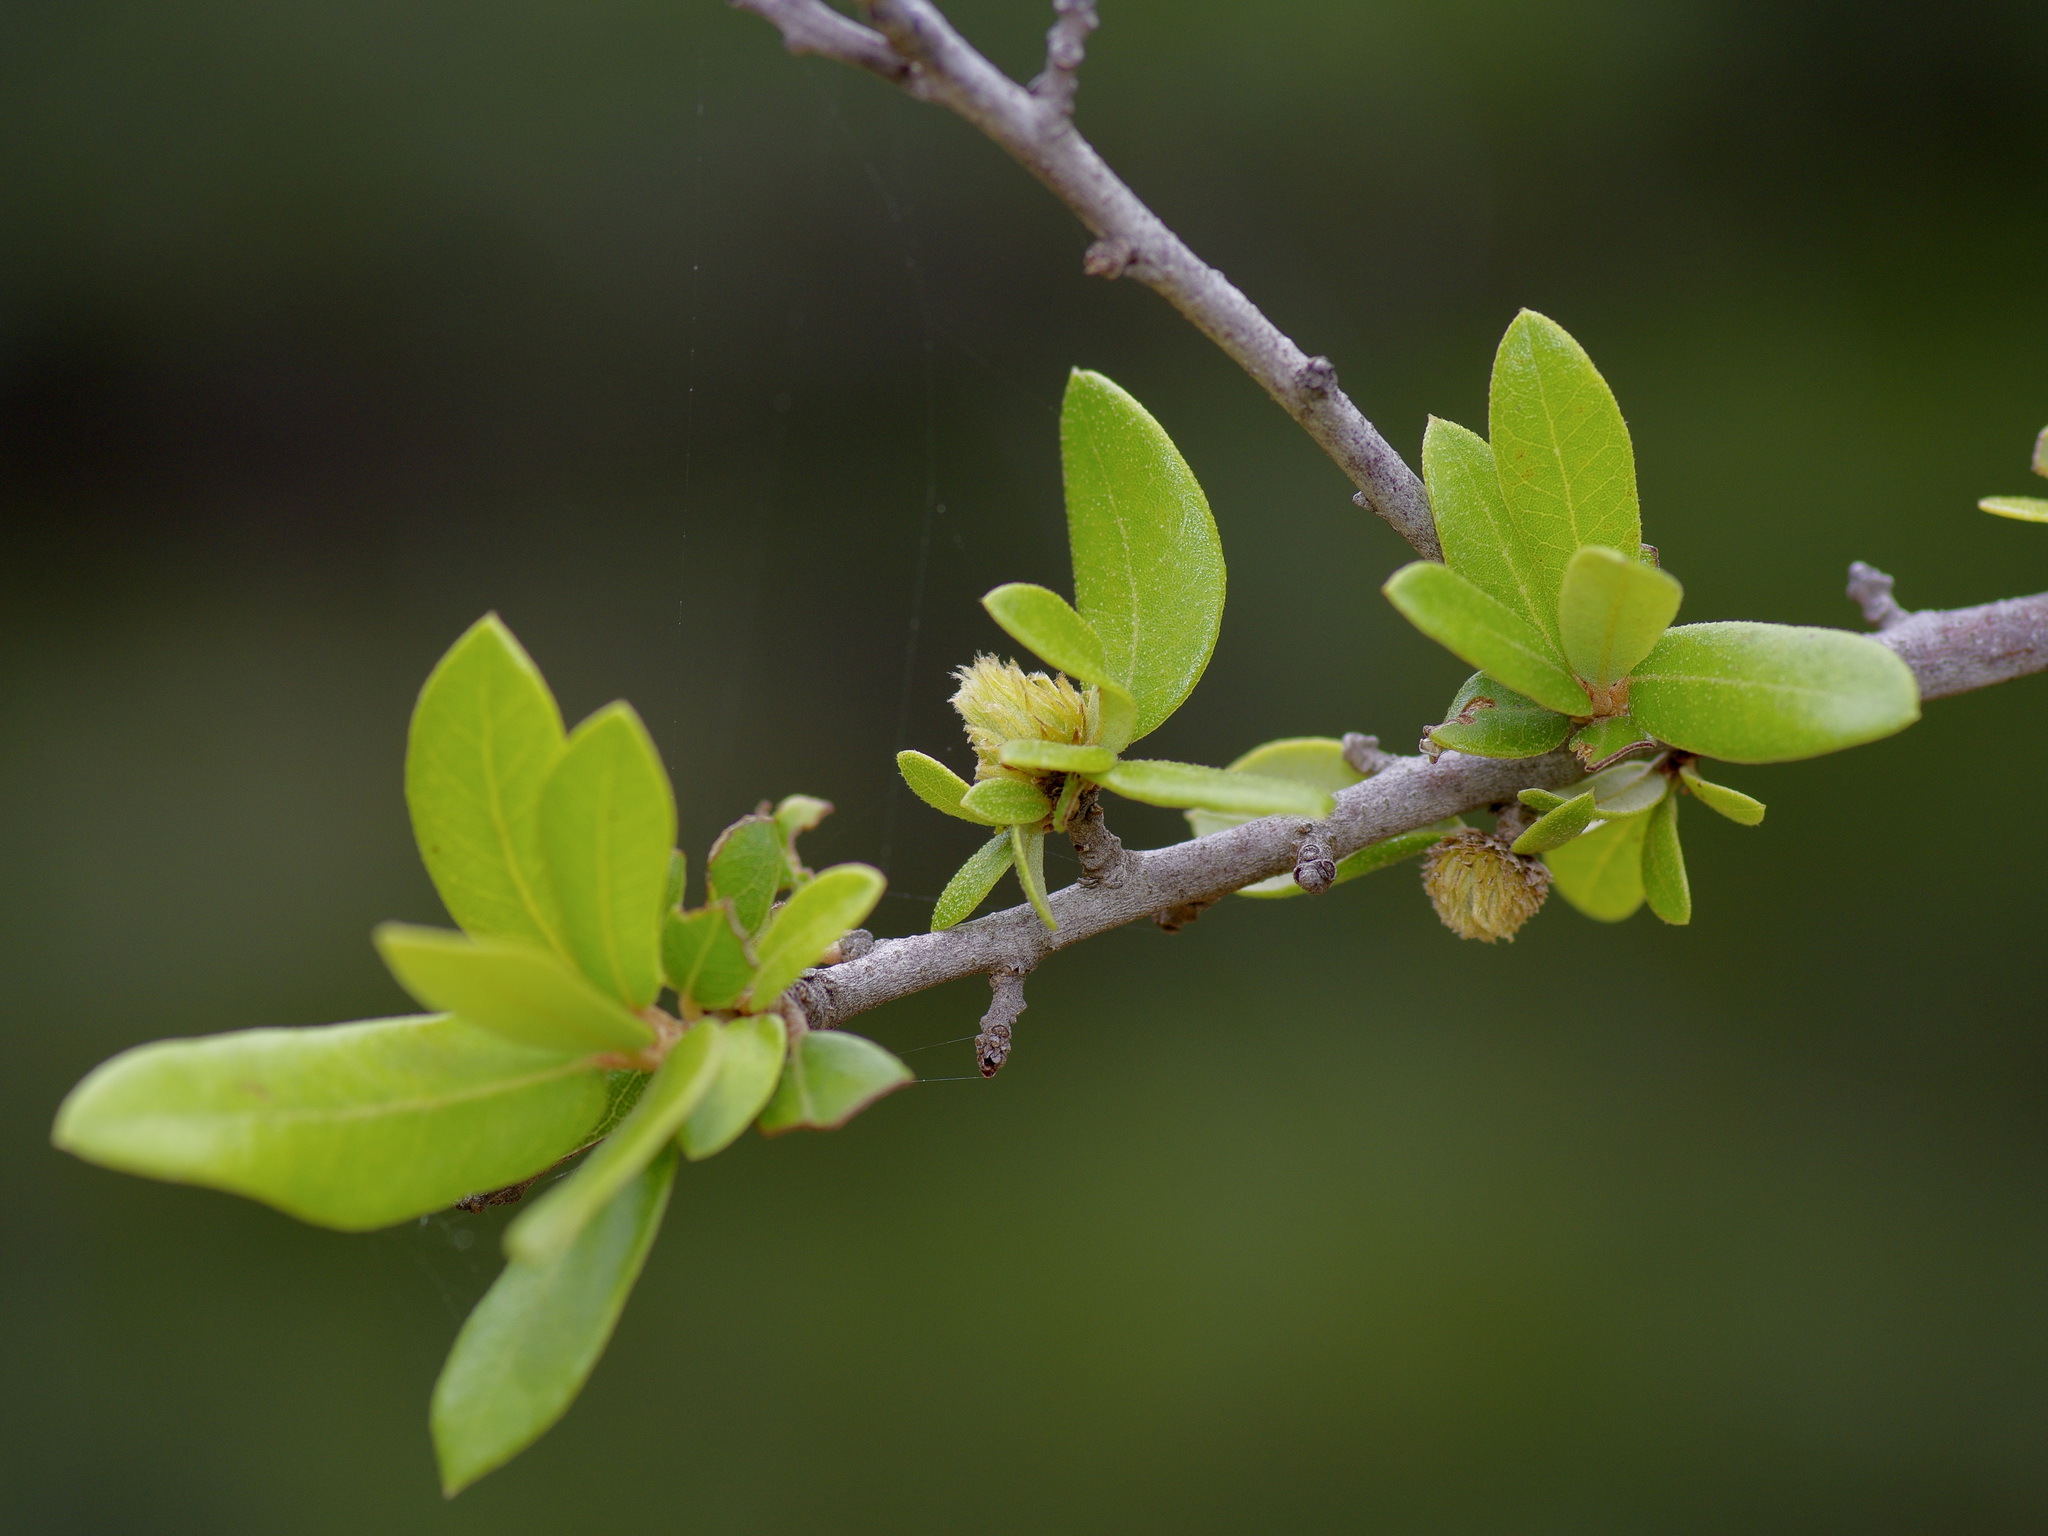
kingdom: Animalia
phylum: Arthropoda
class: Insecta
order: Hymenoptera
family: Cynipidae
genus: Andricus
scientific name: Andricus quercusfoliatus
